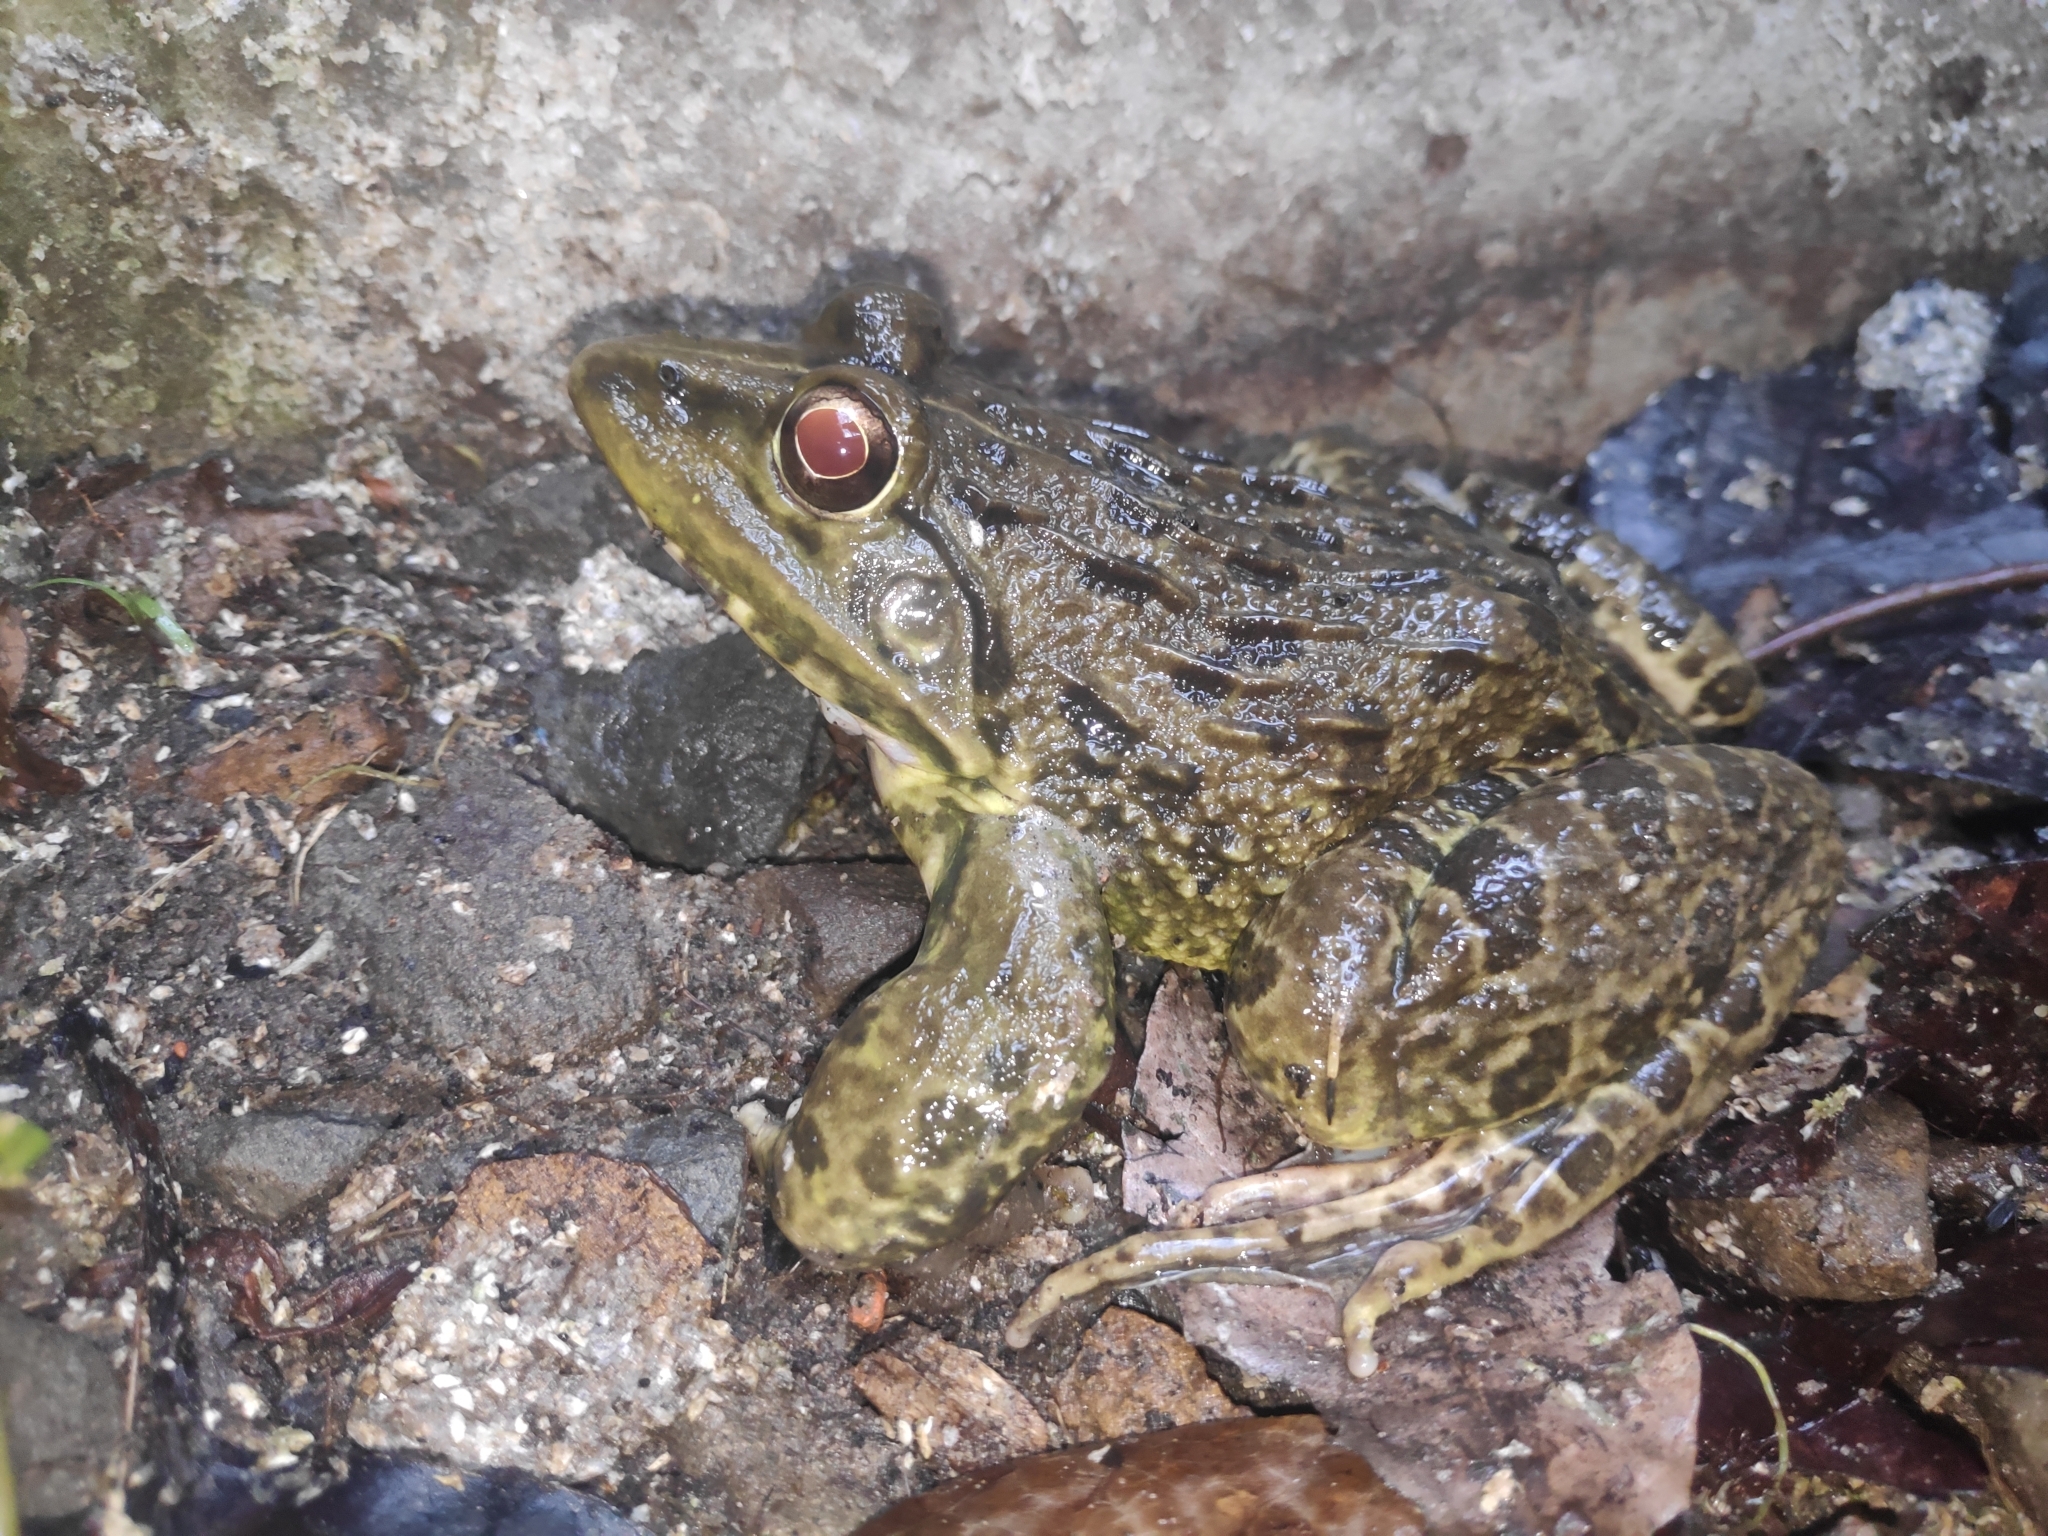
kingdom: Animalia
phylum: Chordata
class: Amphibia
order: Anura
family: Dicroglossidae
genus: Hoplobatrachus
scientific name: Hoplobatrachus tigerinus
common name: Indian bullfrog
